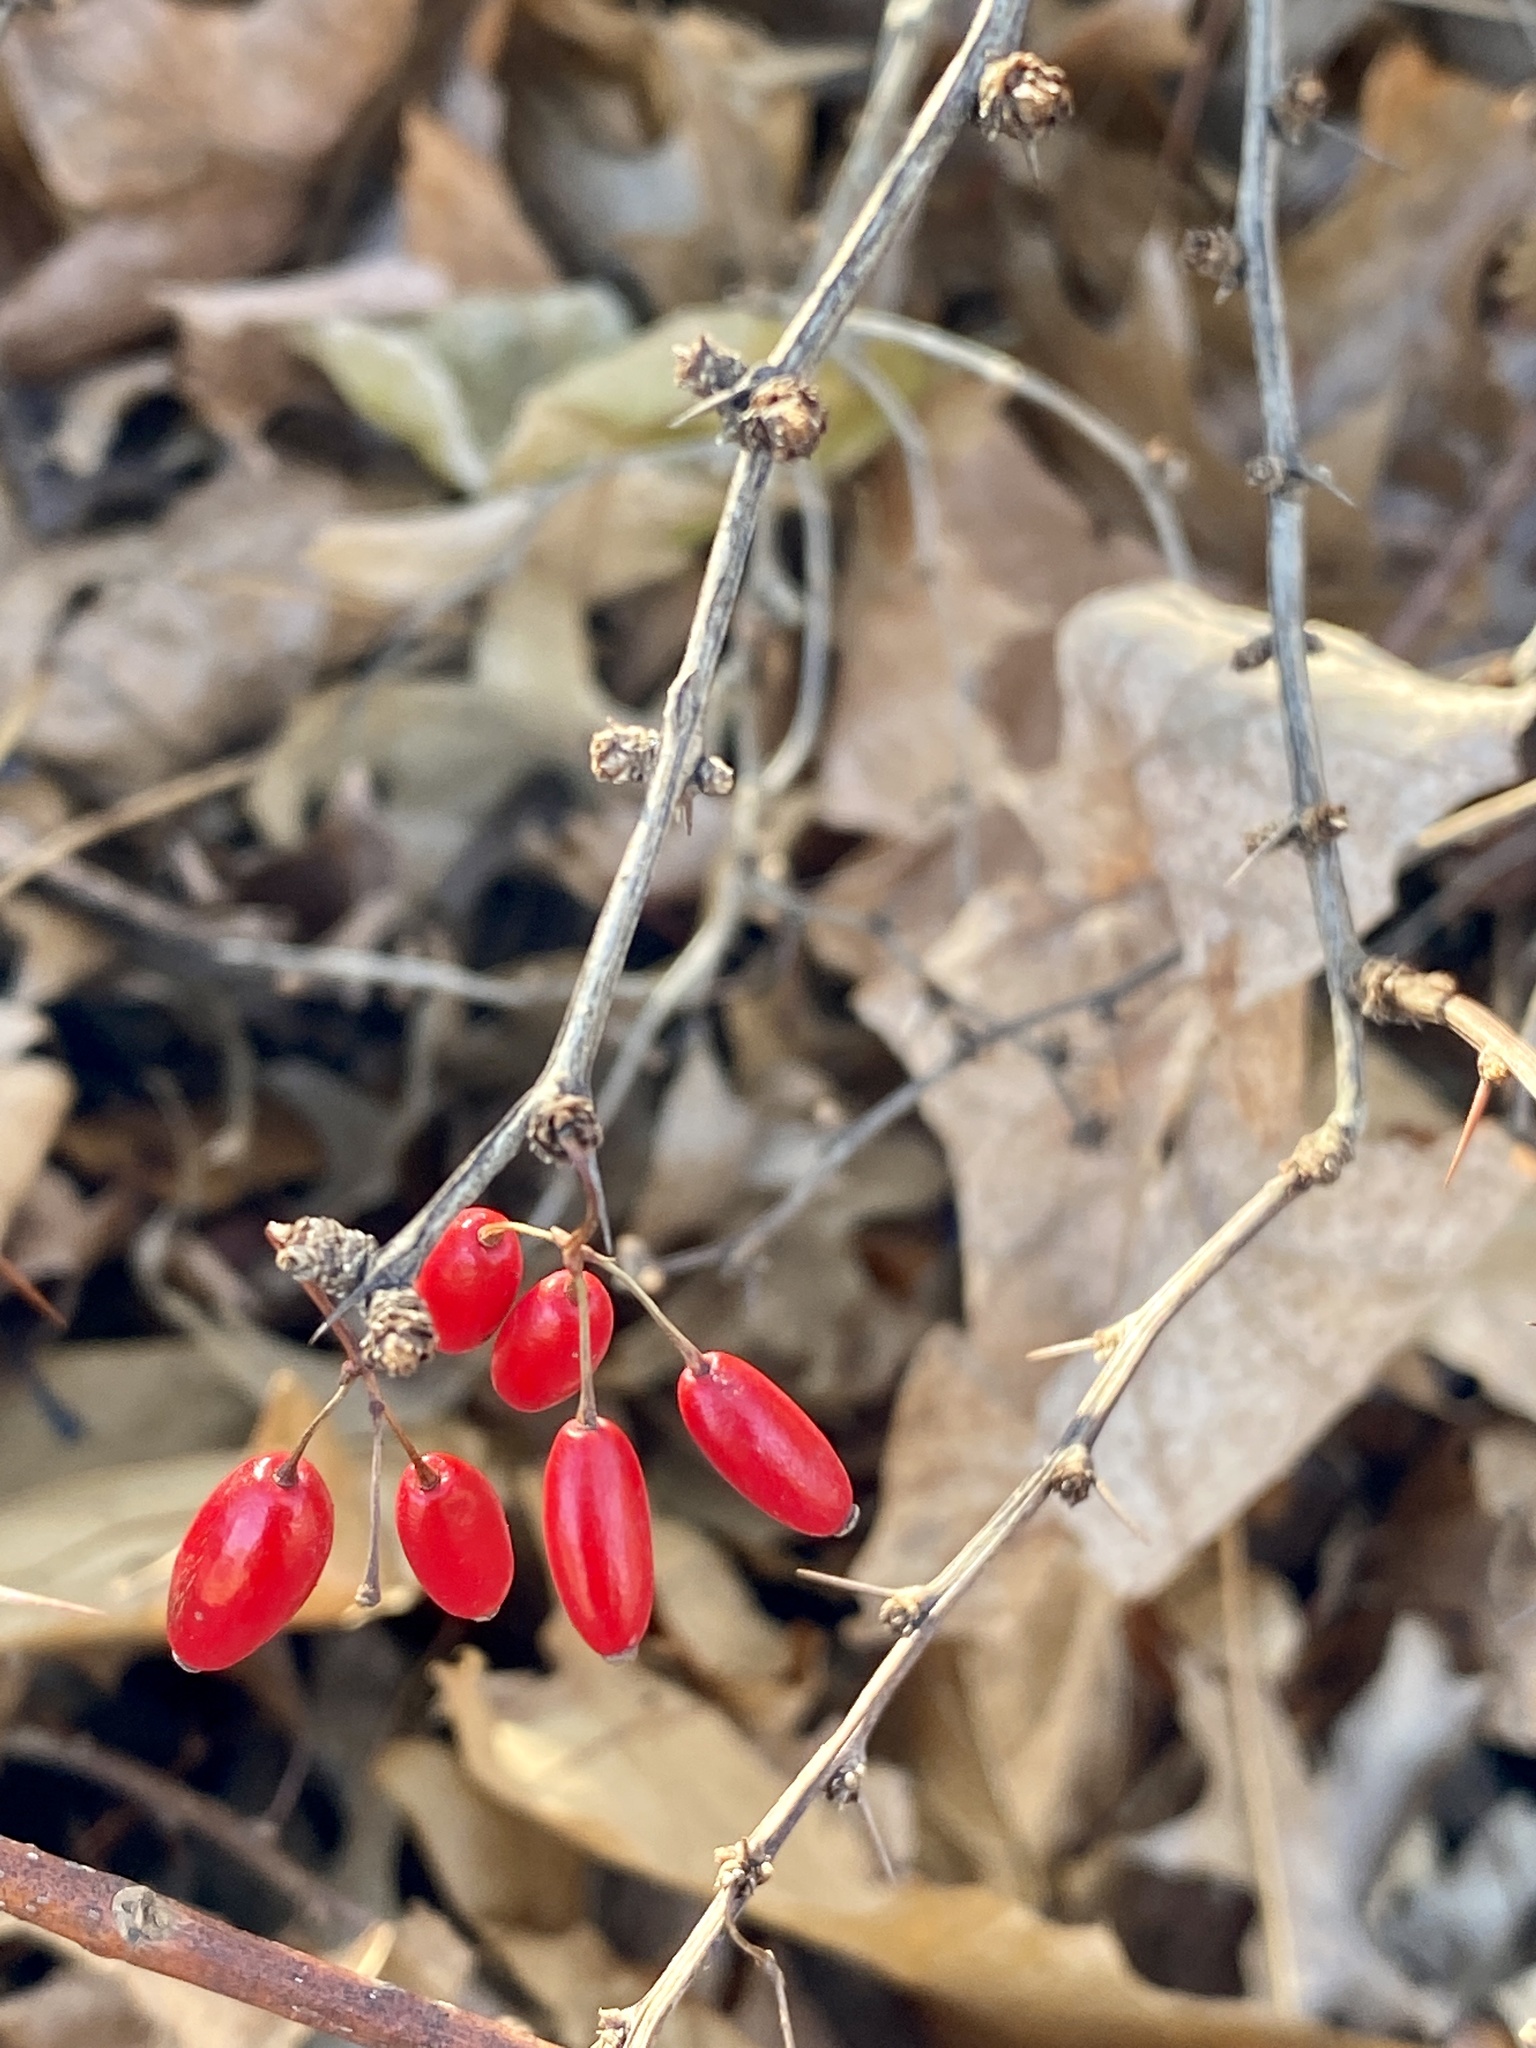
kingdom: Plantae
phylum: Tracheophyta
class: Magnoliopsida
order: Ranunculales
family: Berberidaceae
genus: Berberis
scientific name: Berberis thunbergii
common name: Japanese barberry
